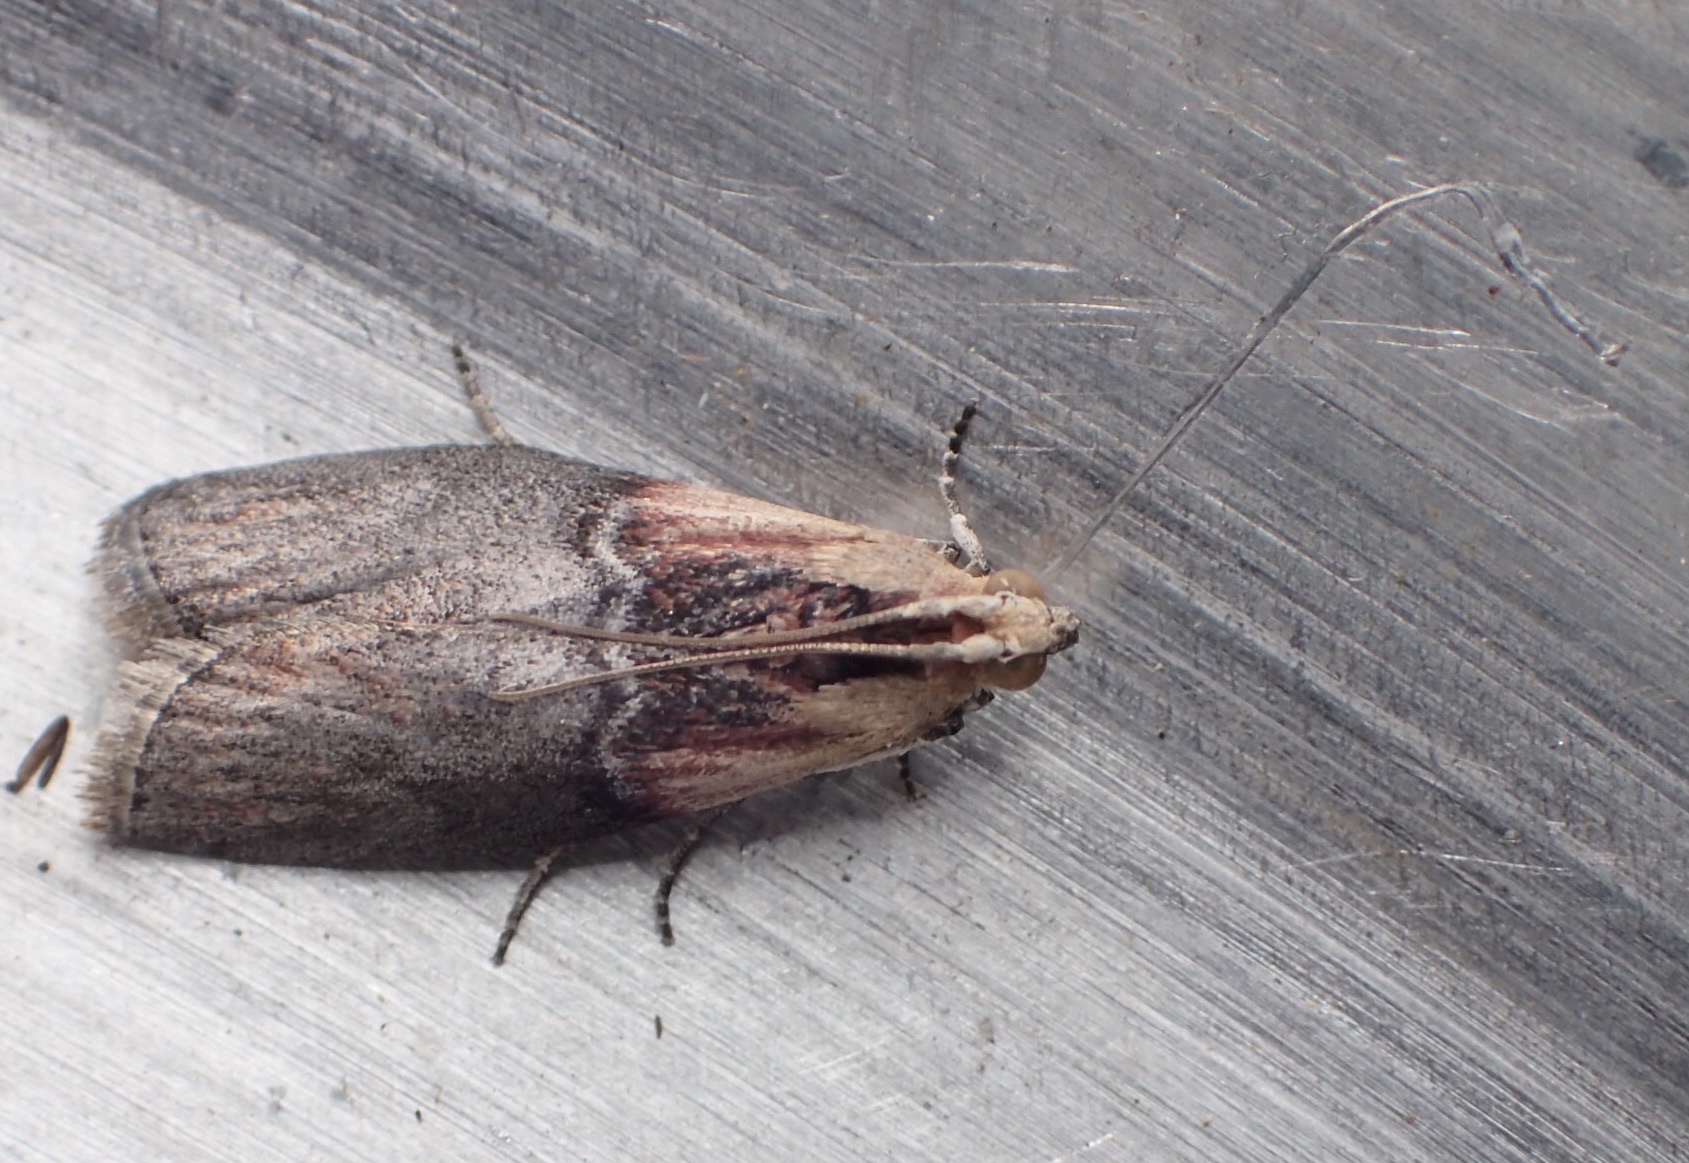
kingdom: Animalia
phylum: Arthropoda
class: Insecta
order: Lepidoptera
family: Pyralidae
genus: Sciota
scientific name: Sciota basilaris
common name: Yellow-shouldered leafroller
